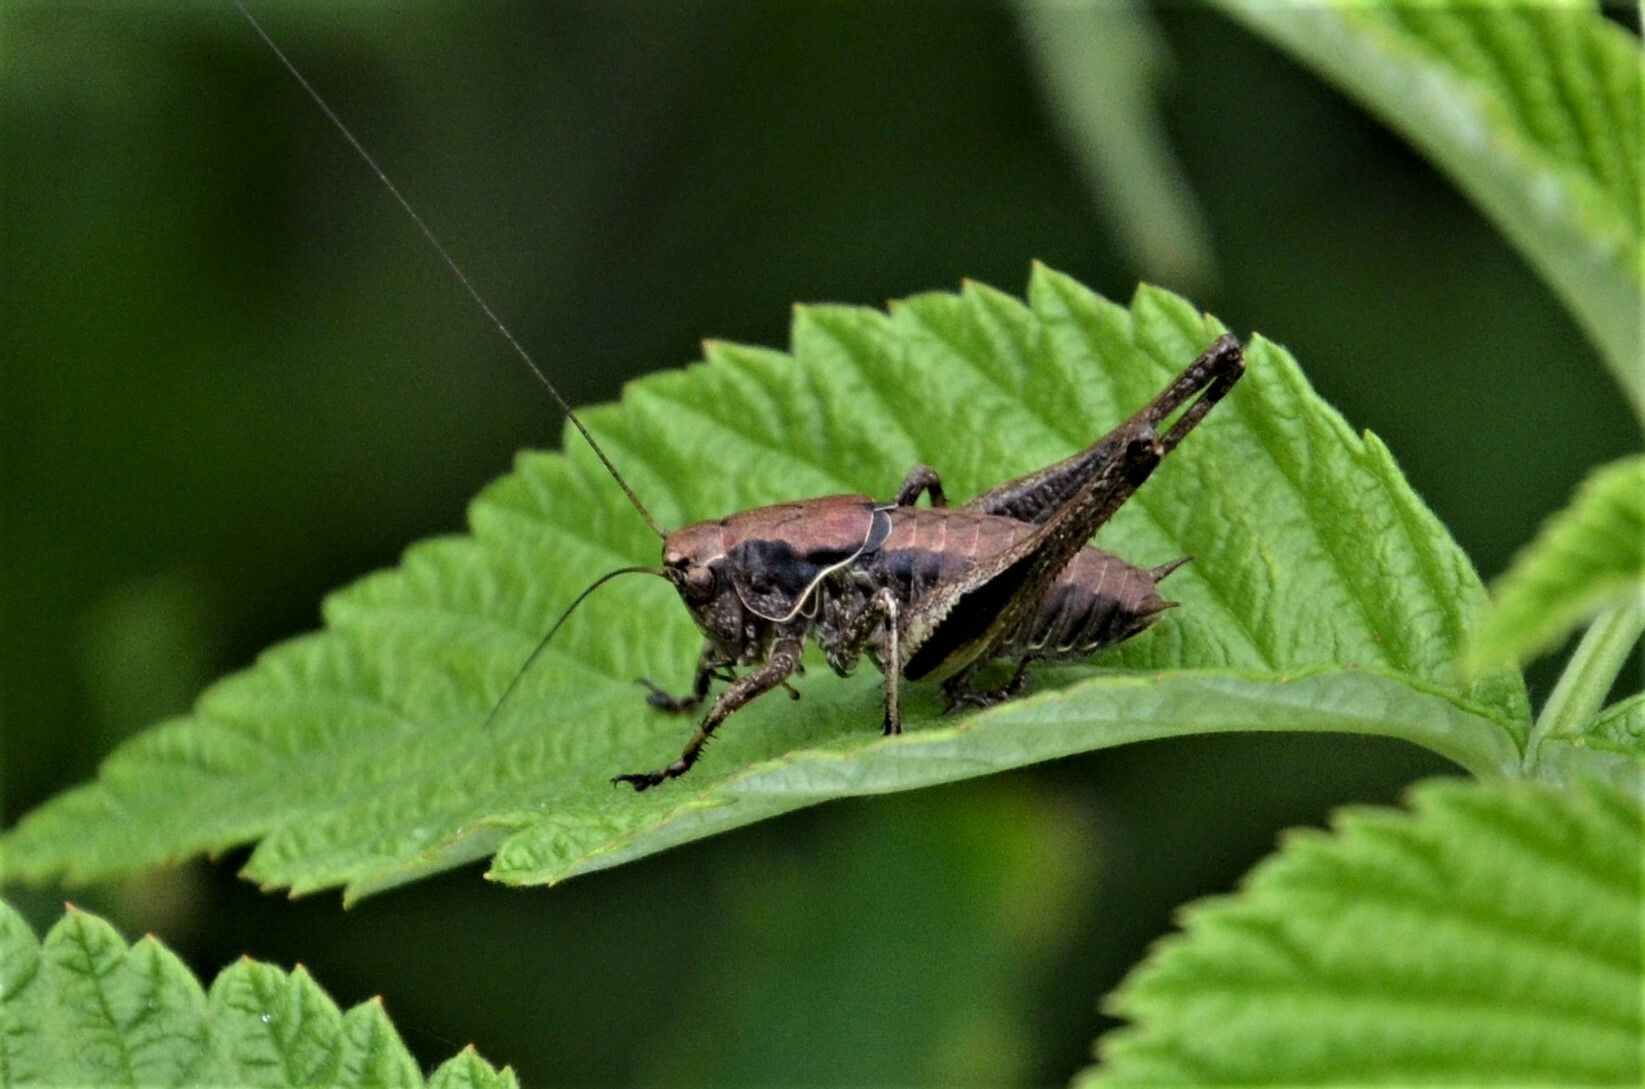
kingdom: Animalia
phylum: Arthropoda
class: Insecta
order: Orthoptera
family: Tettigoniidae
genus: Pholidoptera
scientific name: Pholidoptera griseoaptera
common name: Dark bush-cricket
